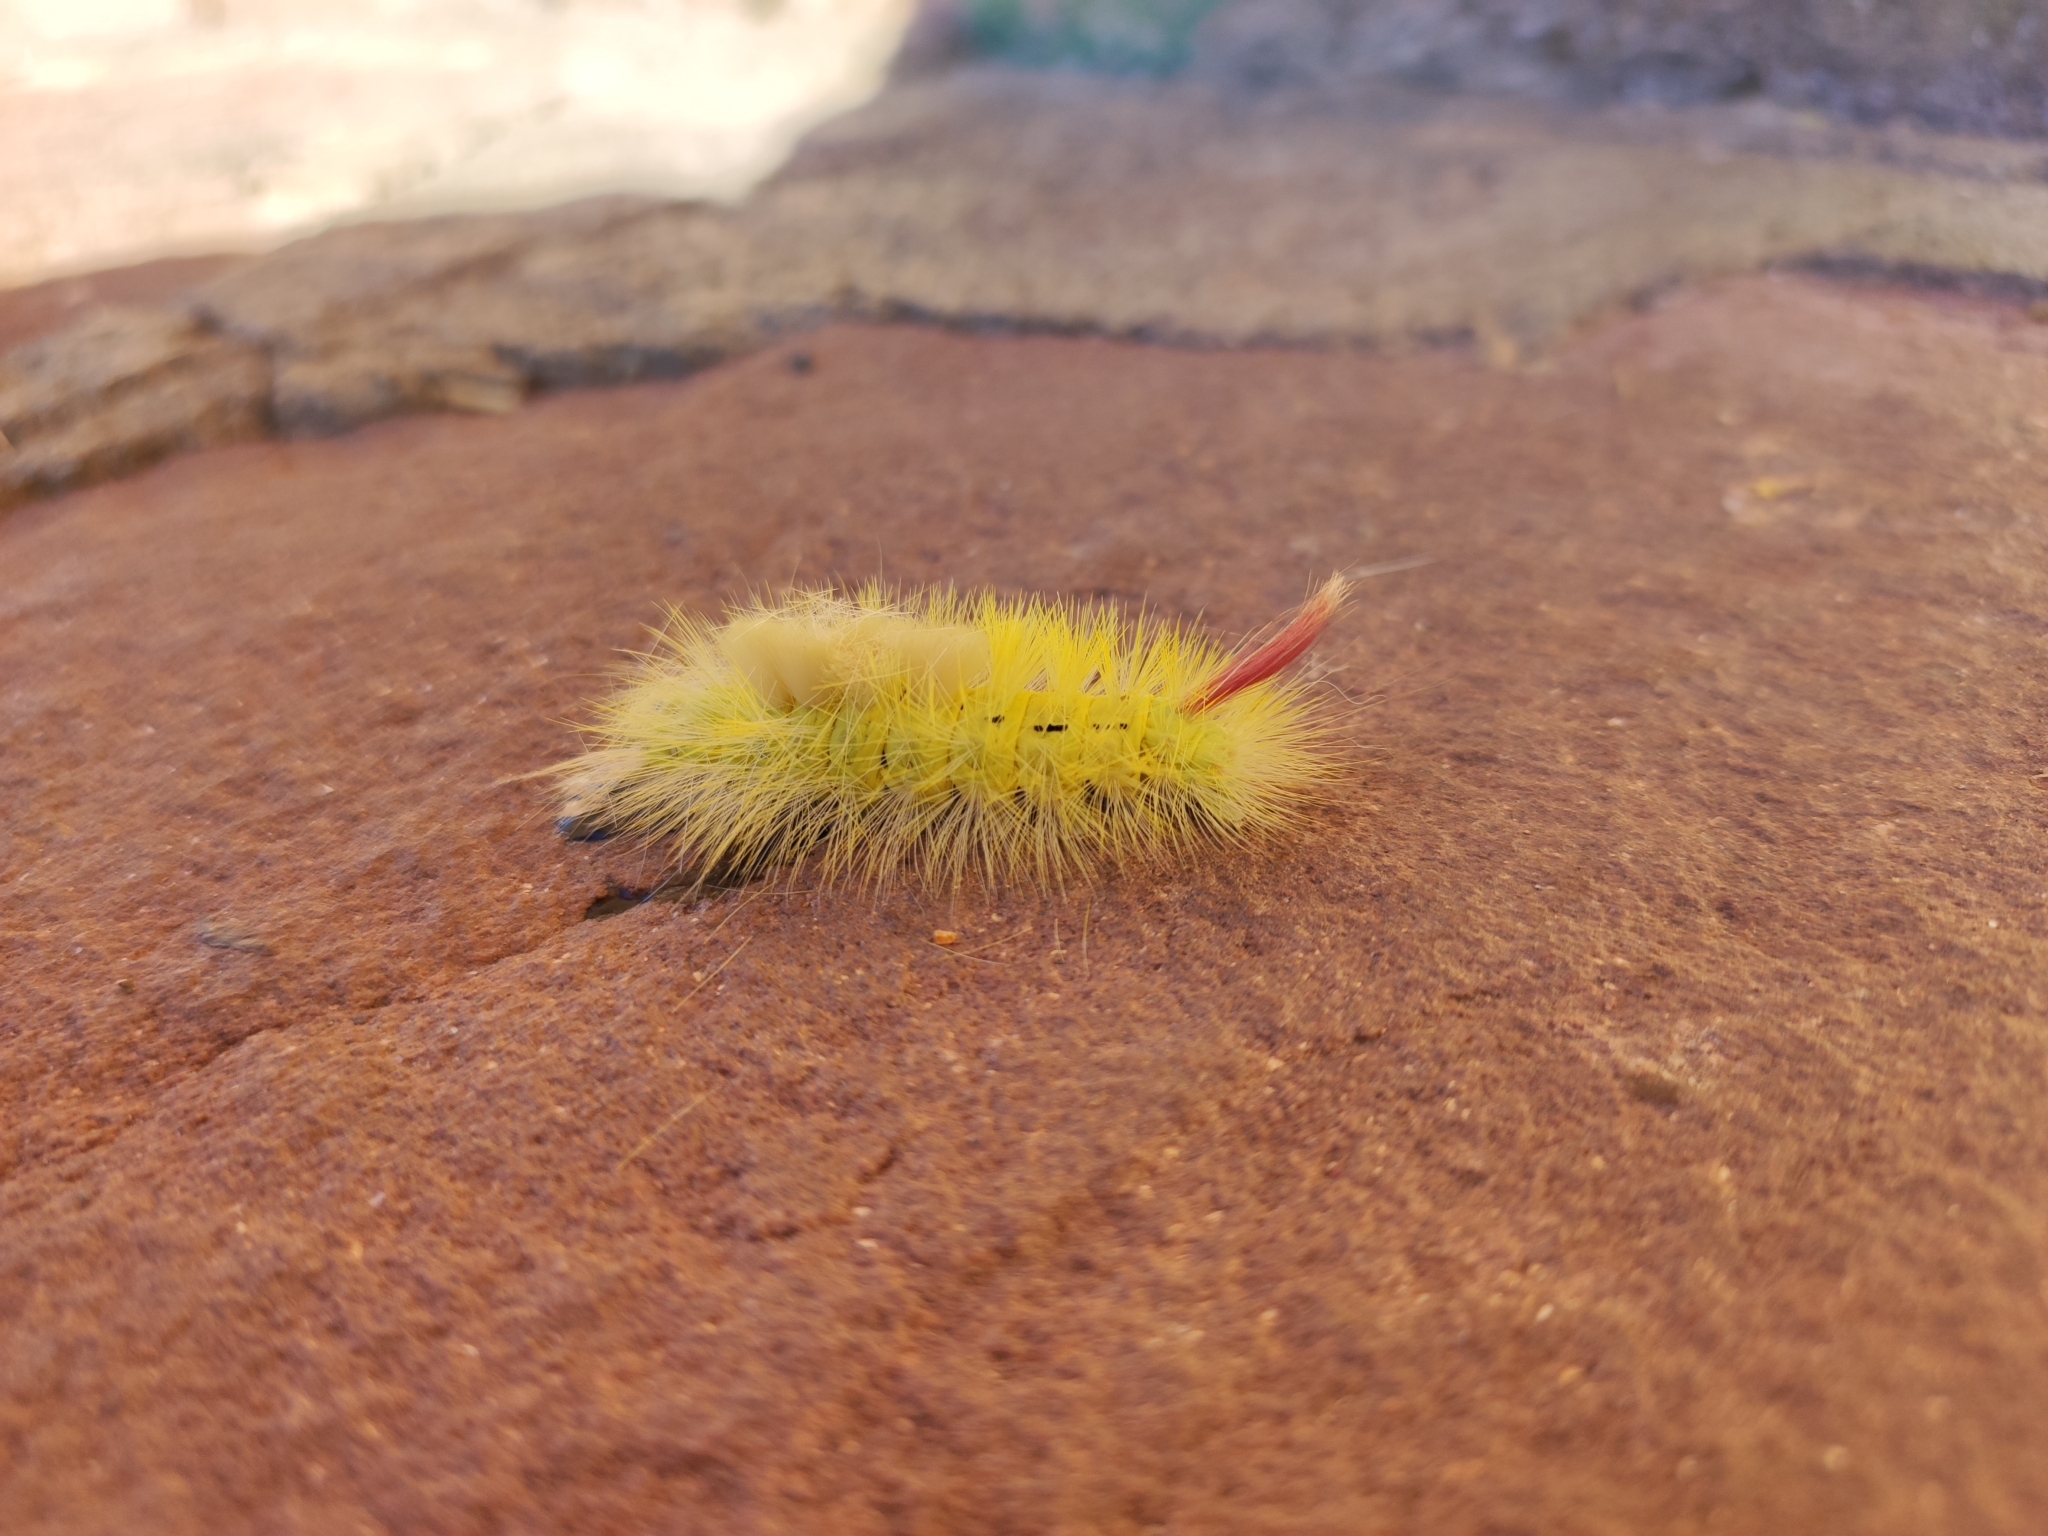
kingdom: Animalia
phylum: Arthropoda
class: Insecta
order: Lepidoptera
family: Erebidae
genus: Calliteara
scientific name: Calliteara pudibunda
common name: Pale tussock
